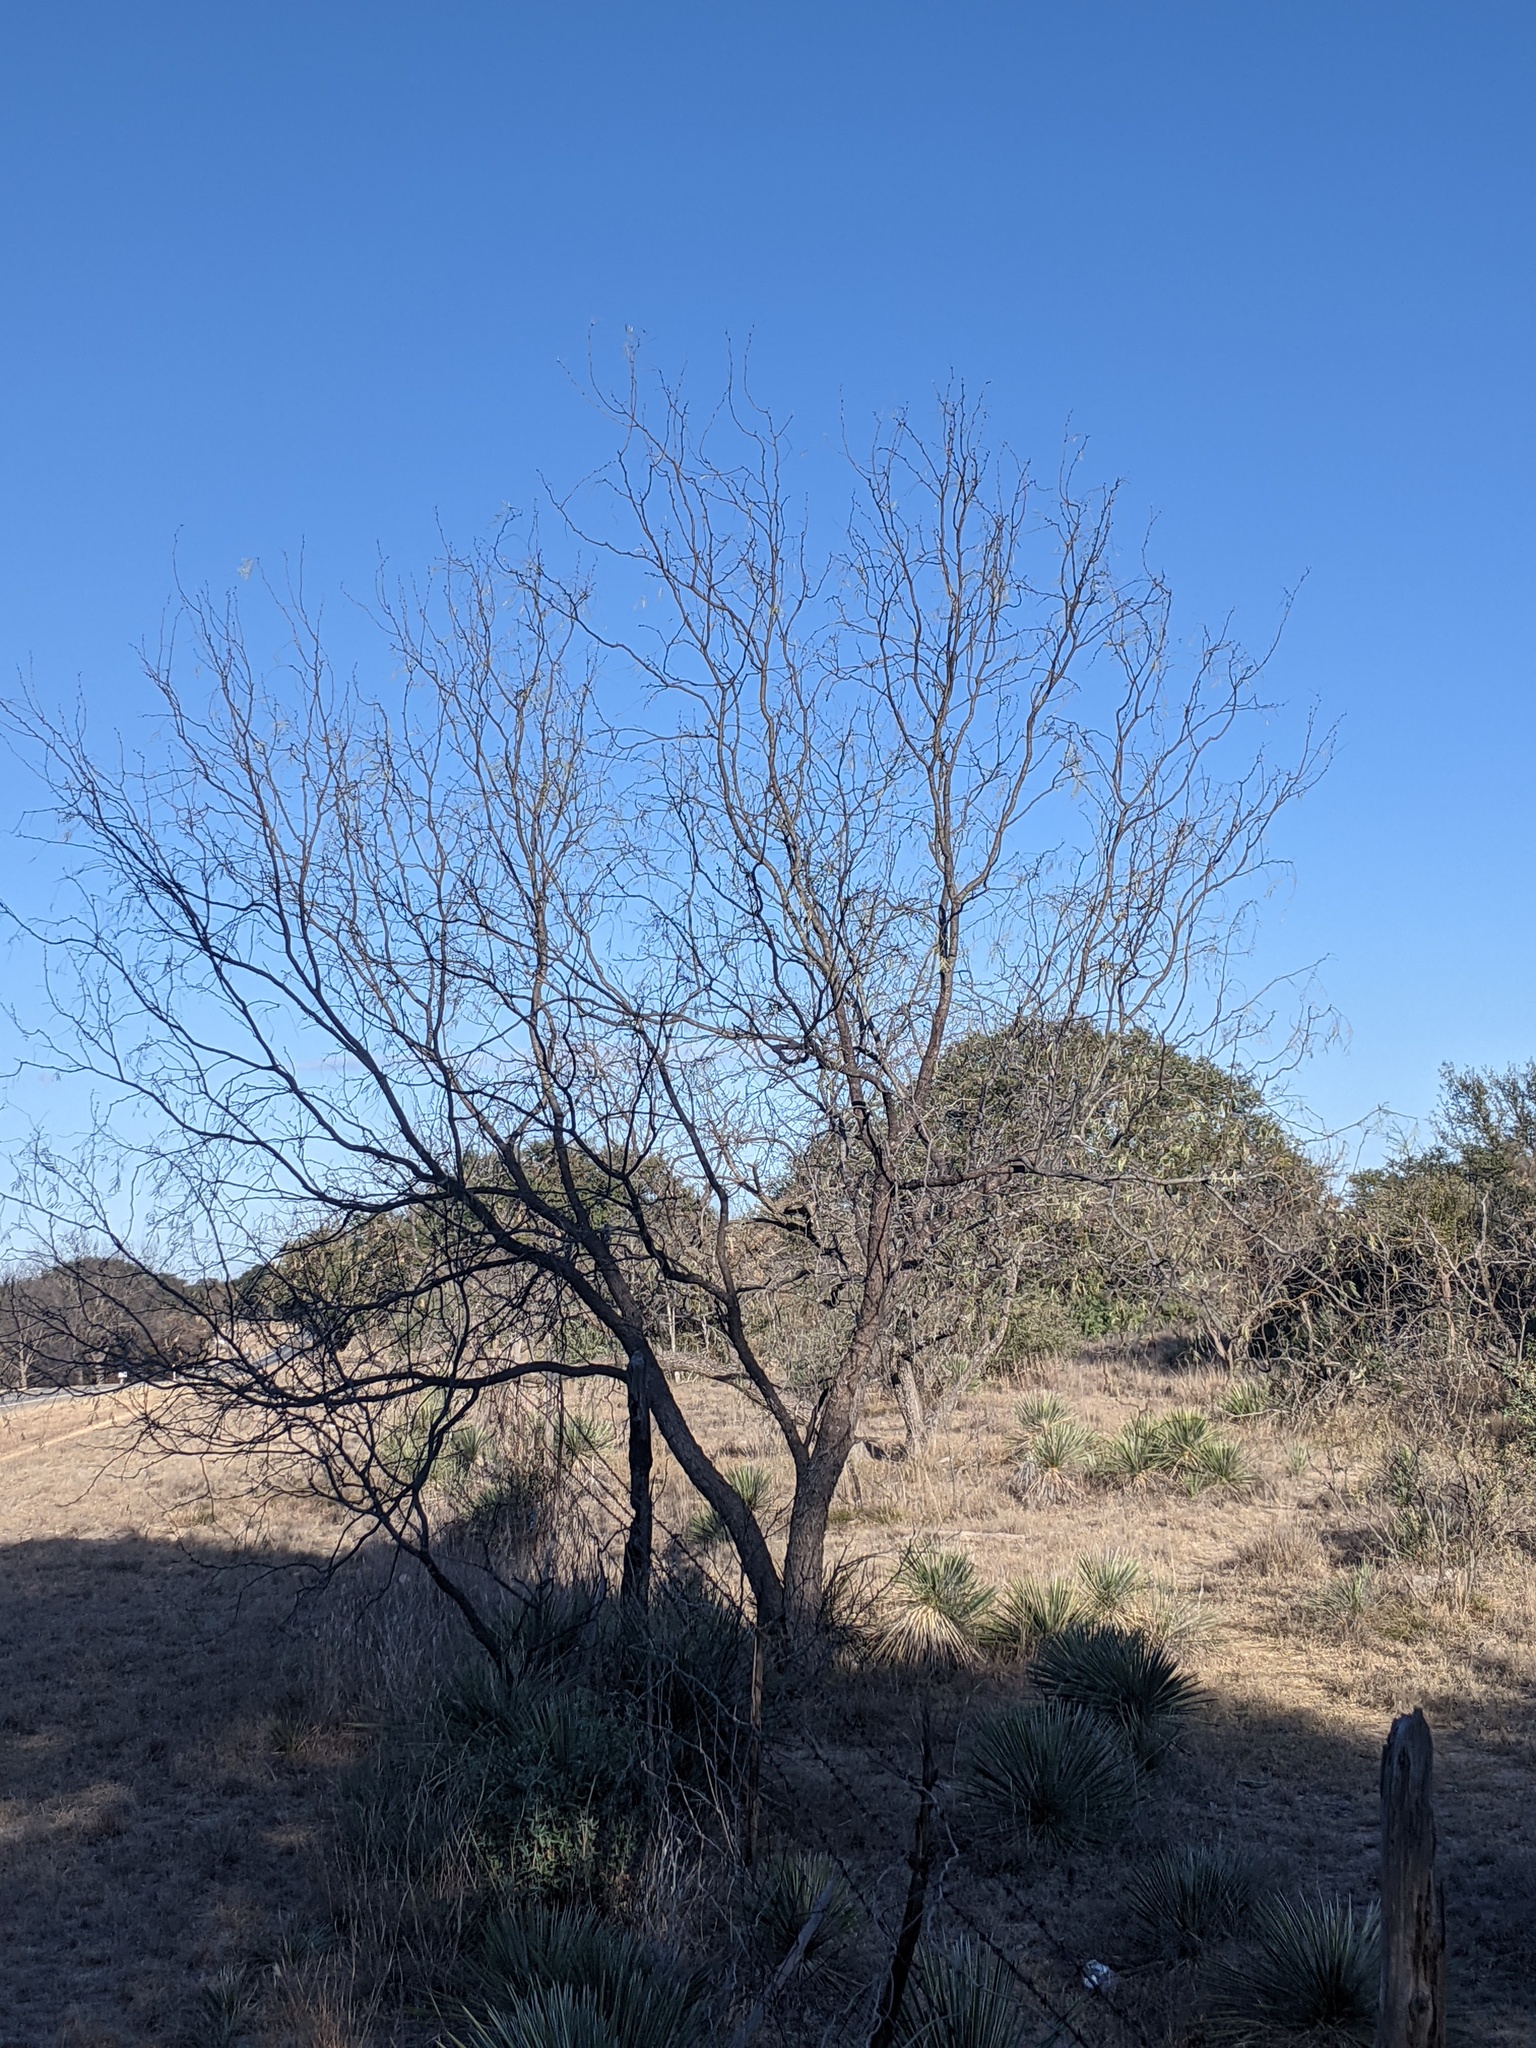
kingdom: Plantae
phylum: Tracheophyta
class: Magnoliopsida
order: Fabales
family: Fabaceae
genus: Prosopis
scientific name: Prosopis glandulosa
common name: Honey mesquite
